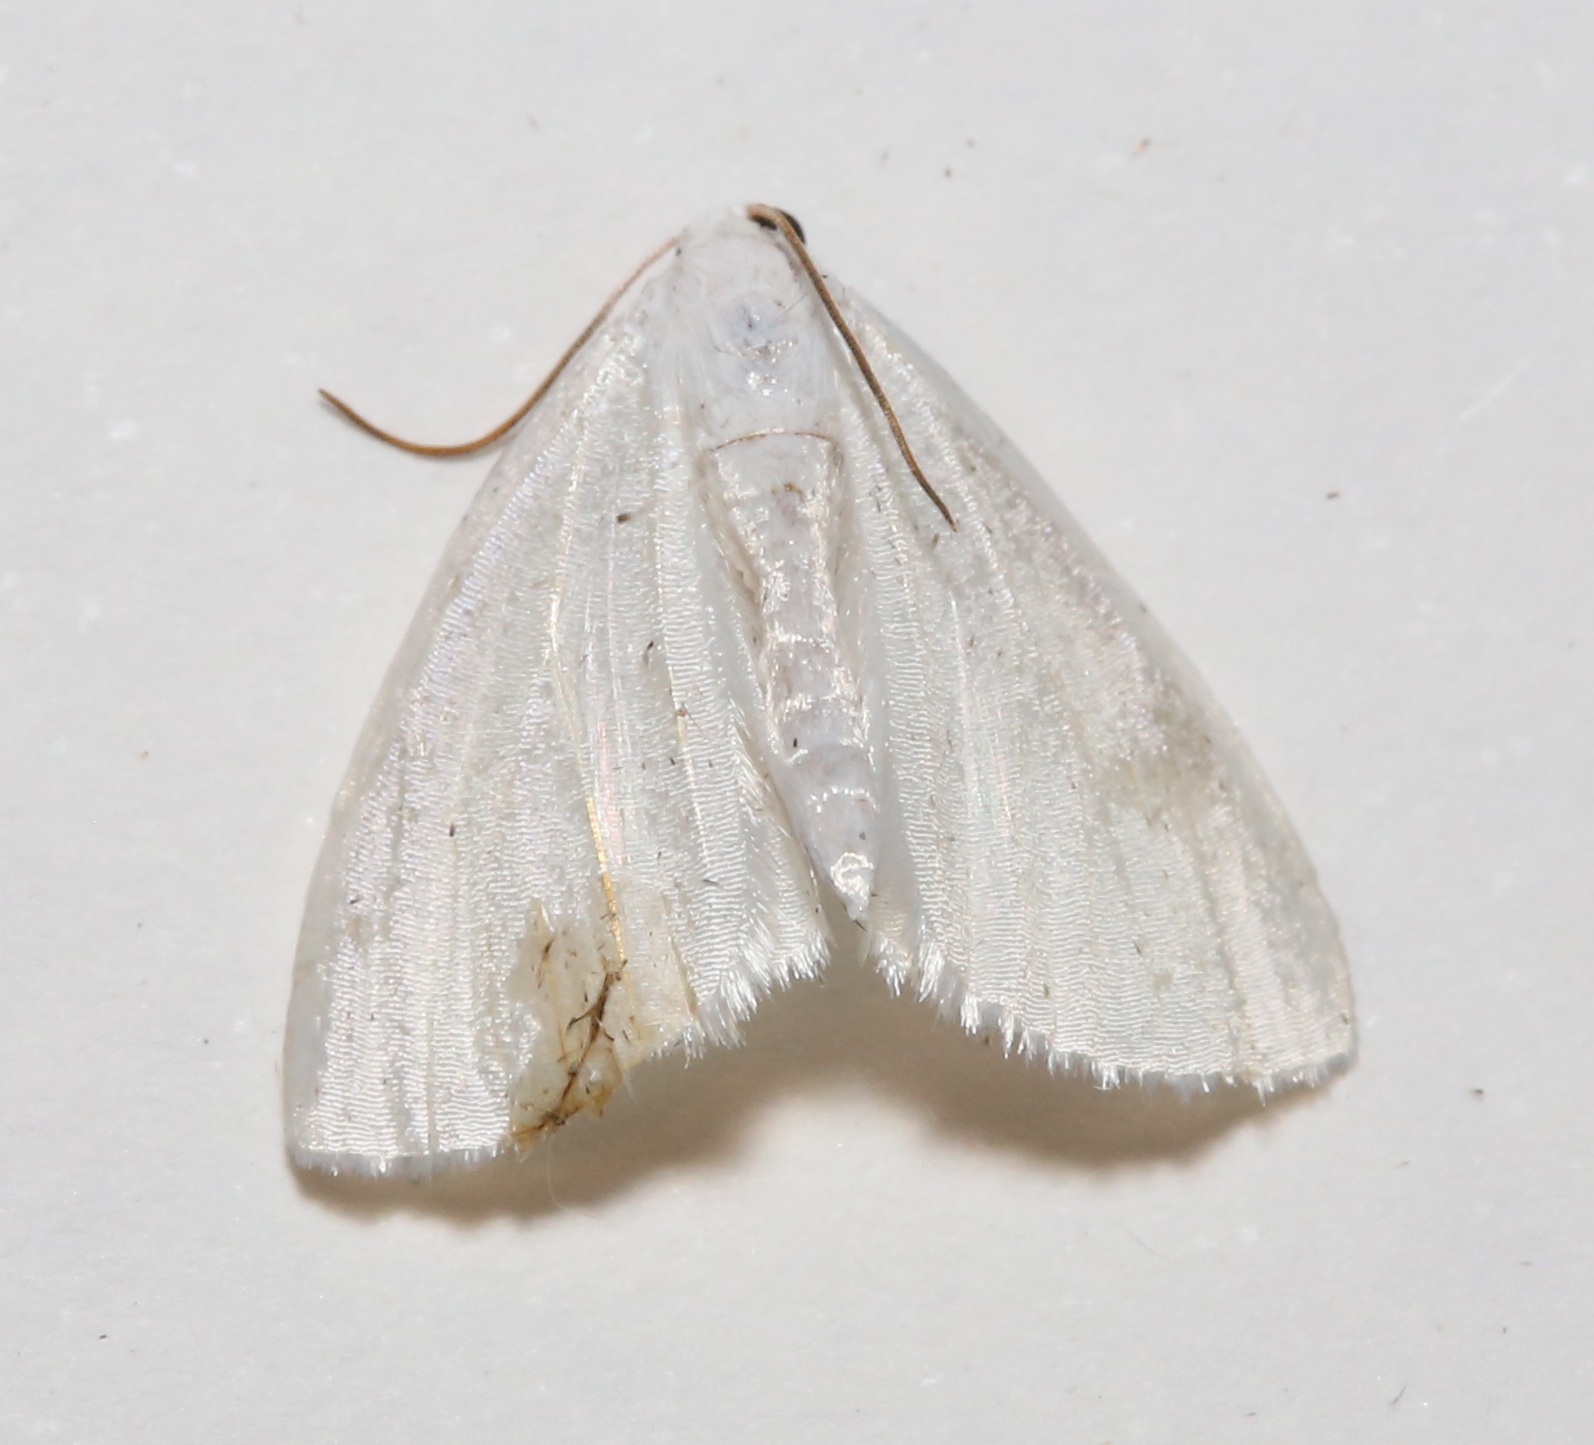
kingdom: Animalia
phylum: Arthropoda
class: Insecta
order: Lepidoptera
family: Geometridae
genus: Lomographa
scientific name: Lomographa vestaliata
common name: White spring moth
